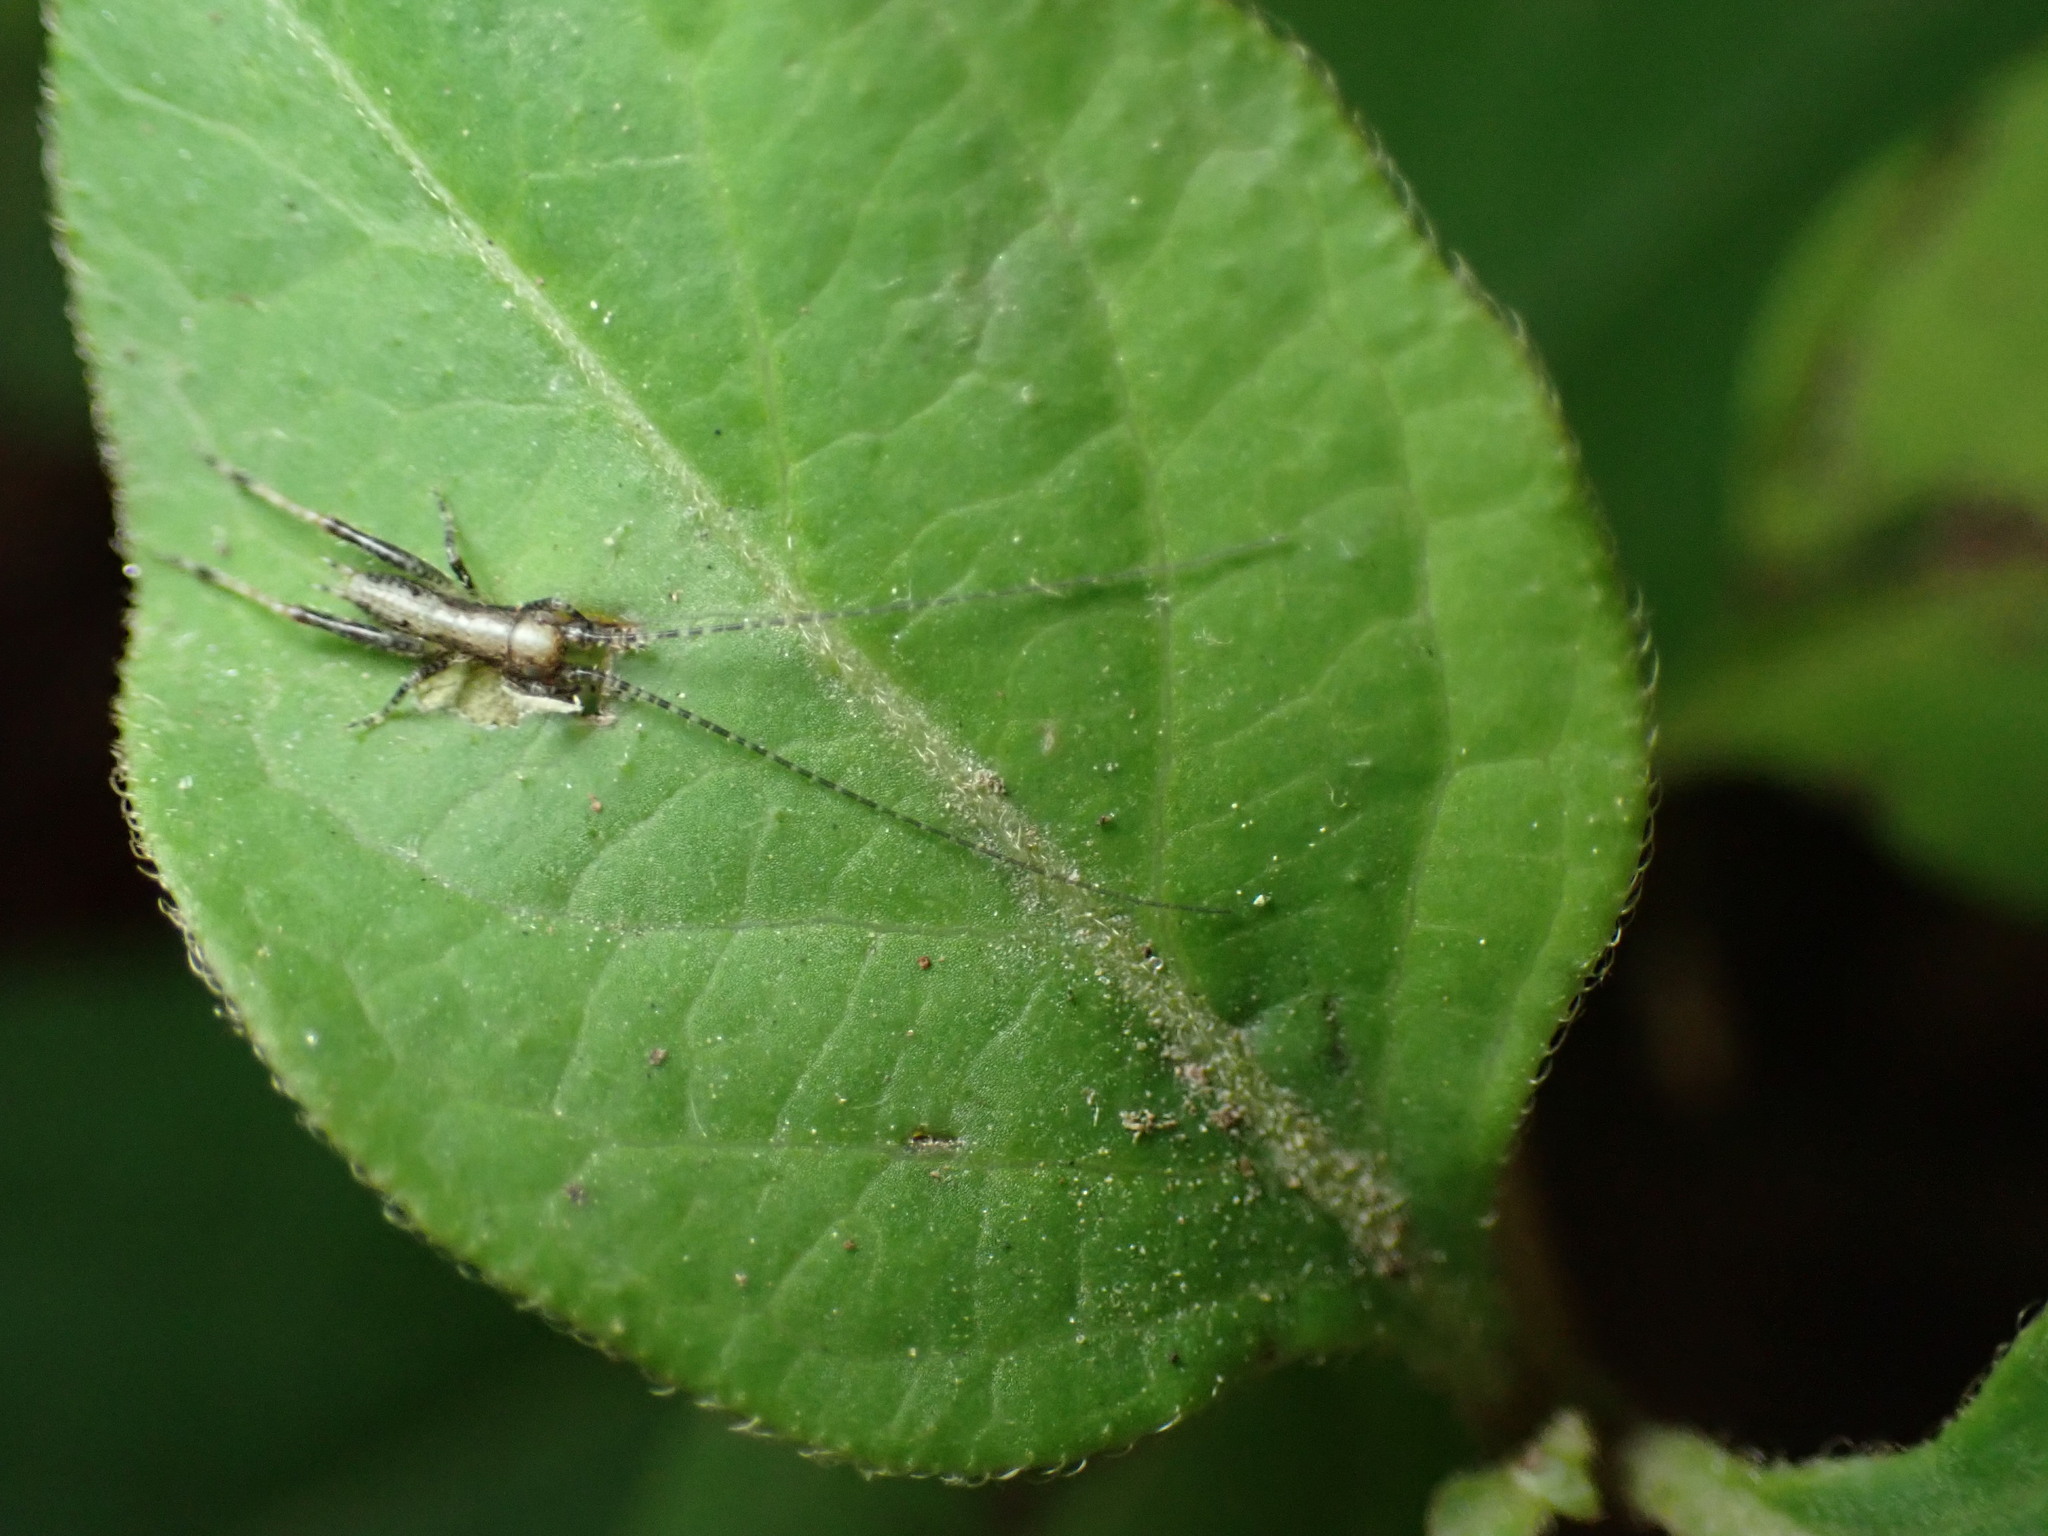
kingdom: Animalia
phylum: Arthropoda
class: Insecta
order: Orthoptera
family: Gryllidae
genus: Hapithus
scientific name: Hapithus saltator
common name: Jumping bush cricket
